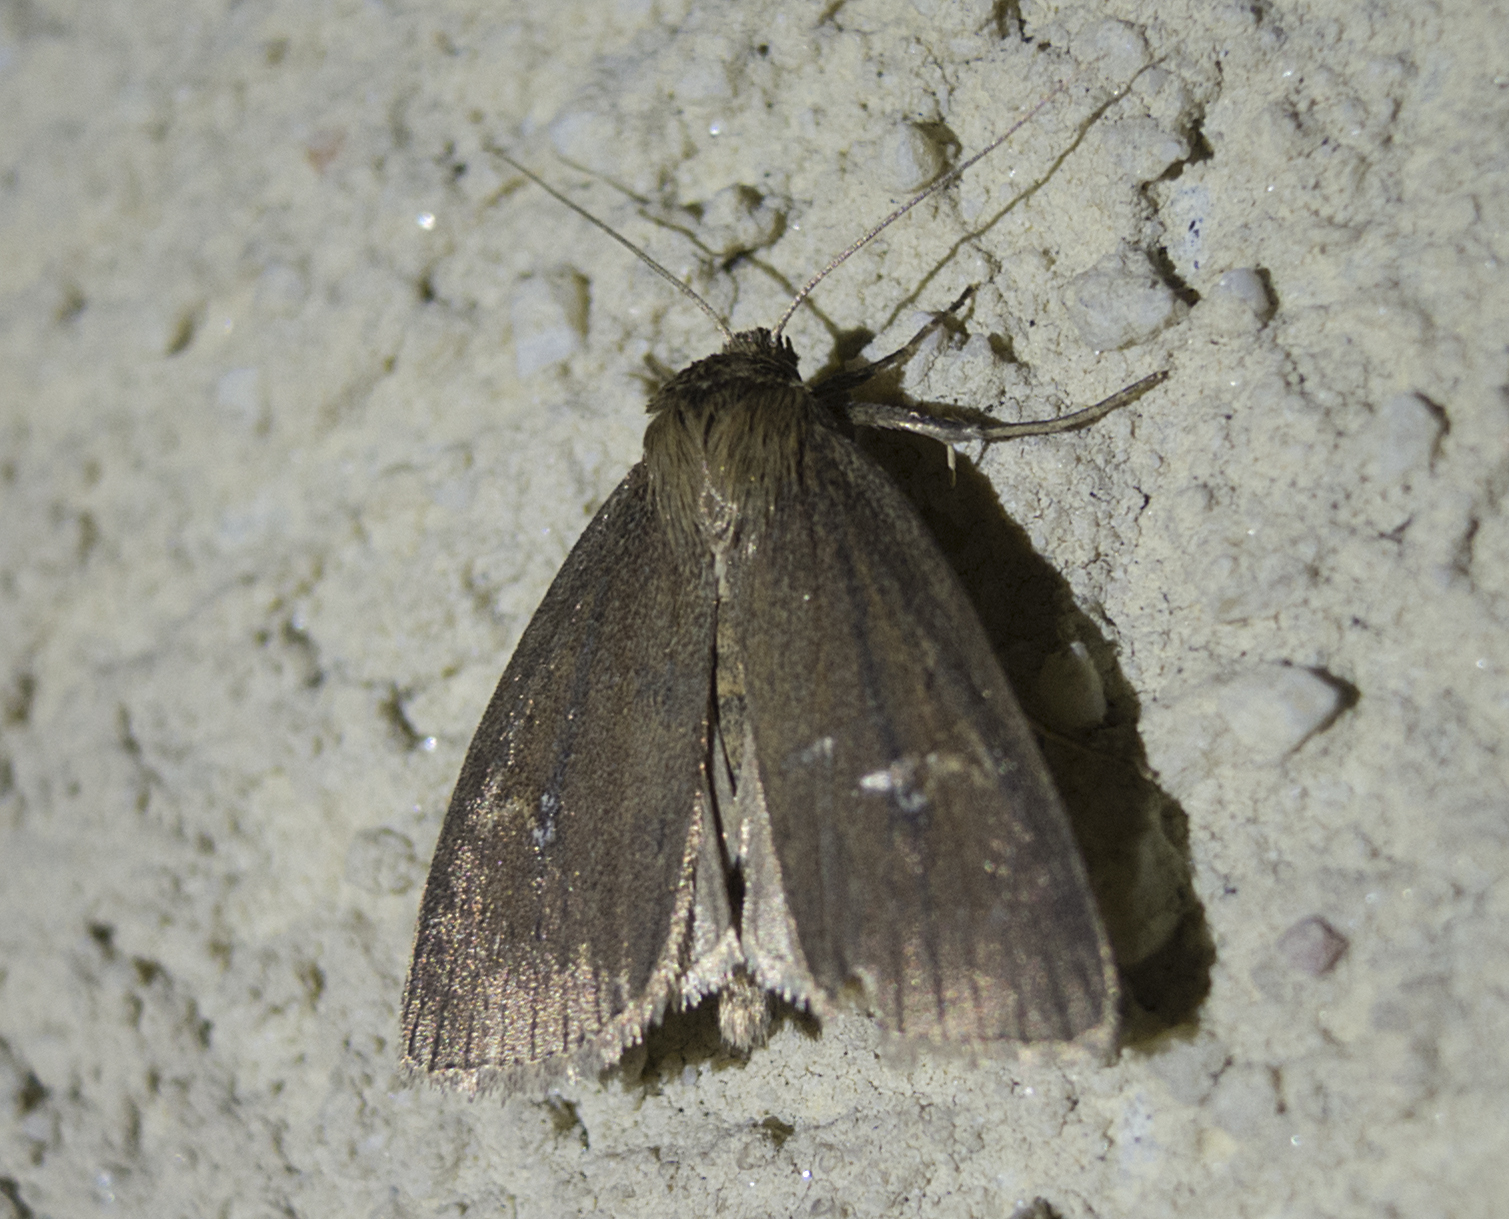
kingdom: Animalia
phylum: Arthropoda
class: Insecta
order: Lepidoptera
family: Noctuidae
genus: Archanara
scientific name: Archanara dissoluta
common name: Brown-veined wainscot
